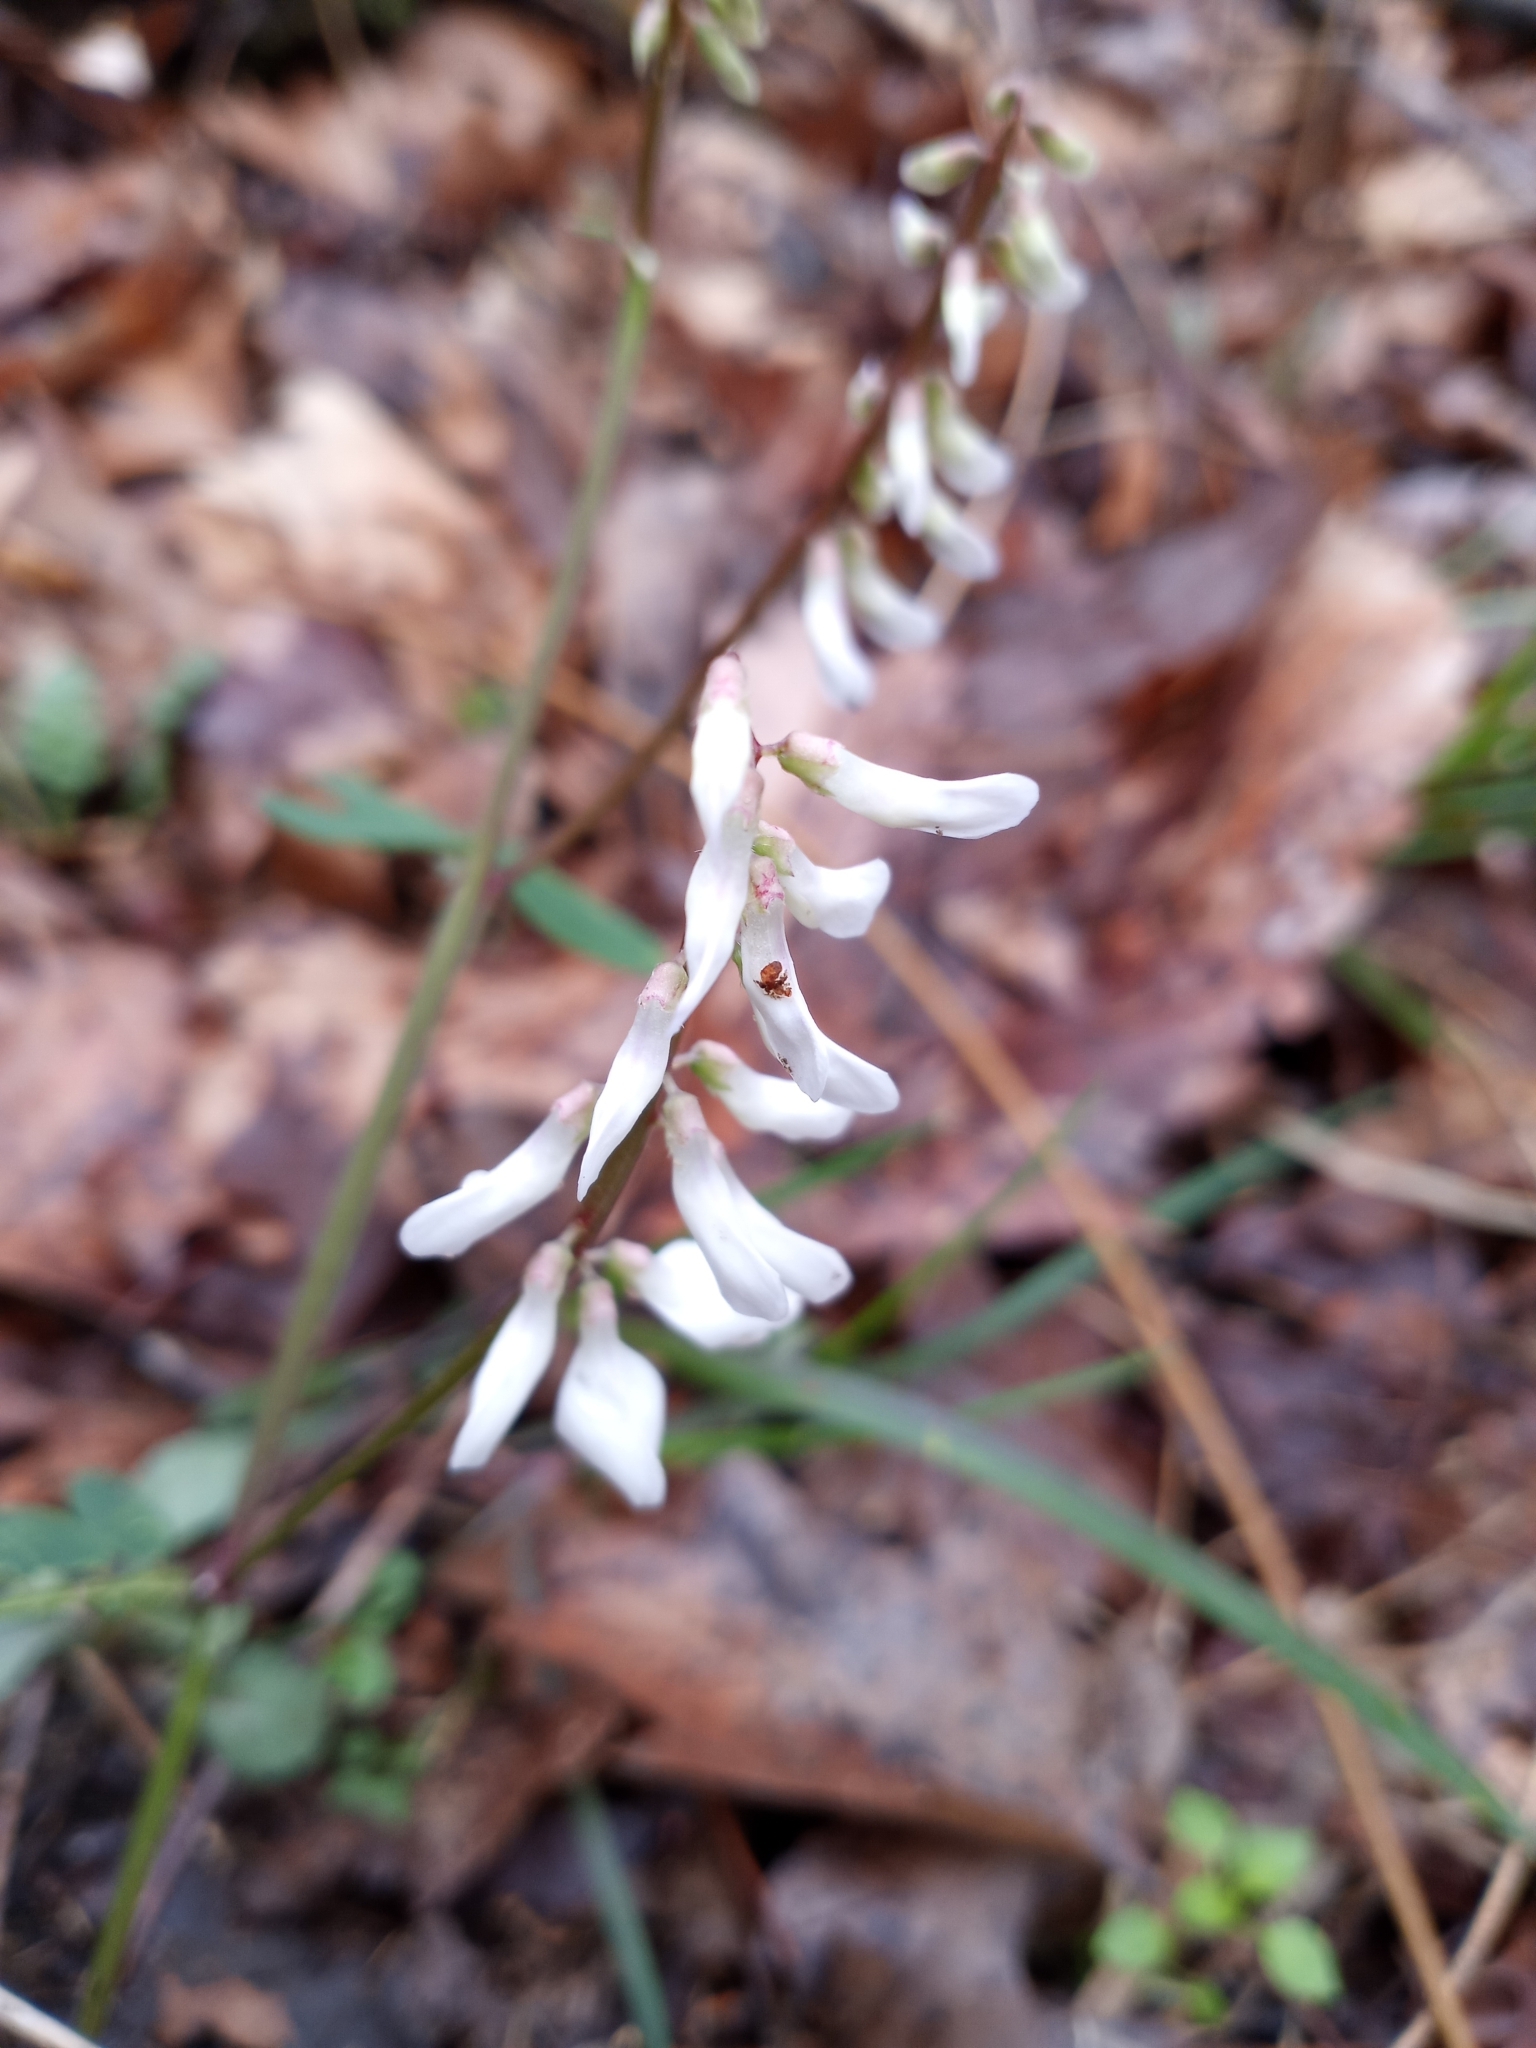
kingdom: Plantae
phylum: Tracheophyta
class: Magnoliopsida
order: Fabales
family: Fabaceae
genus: Vicia
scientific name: Vicia caroliniana
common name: Carolina vetch
